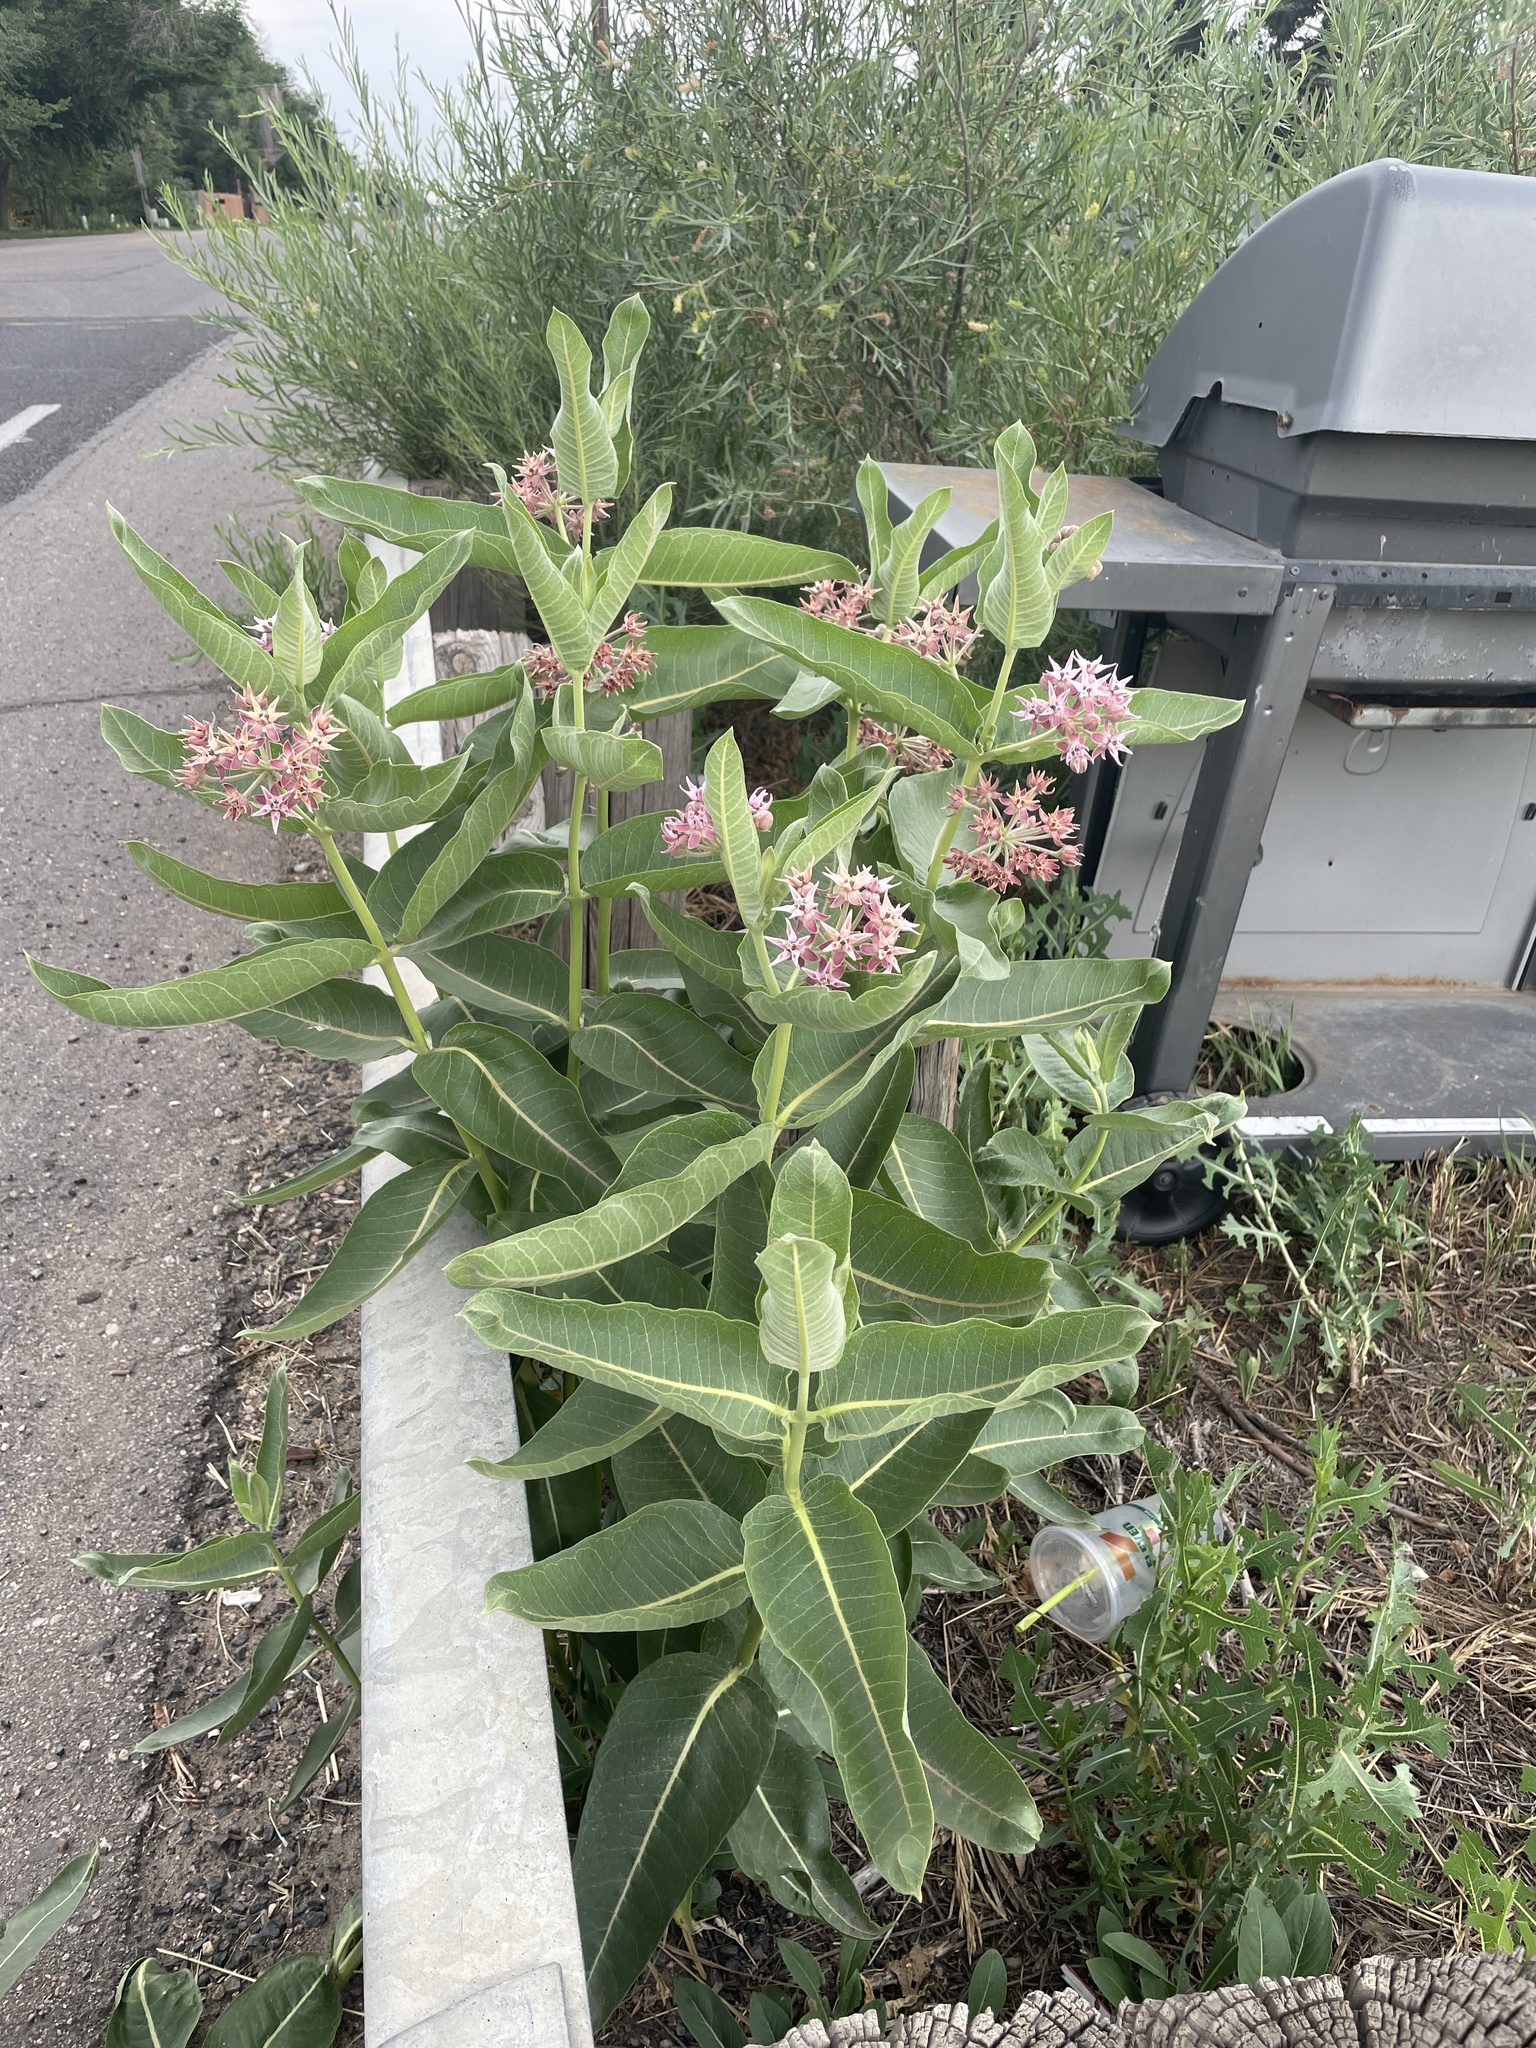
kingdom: Plantae
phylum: Tracheophyta
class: Magnoliopsida
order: Gentianales
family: Apocynaceae
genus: Asclepias
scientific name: Asclepias speciosa
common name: Showy milkweed
